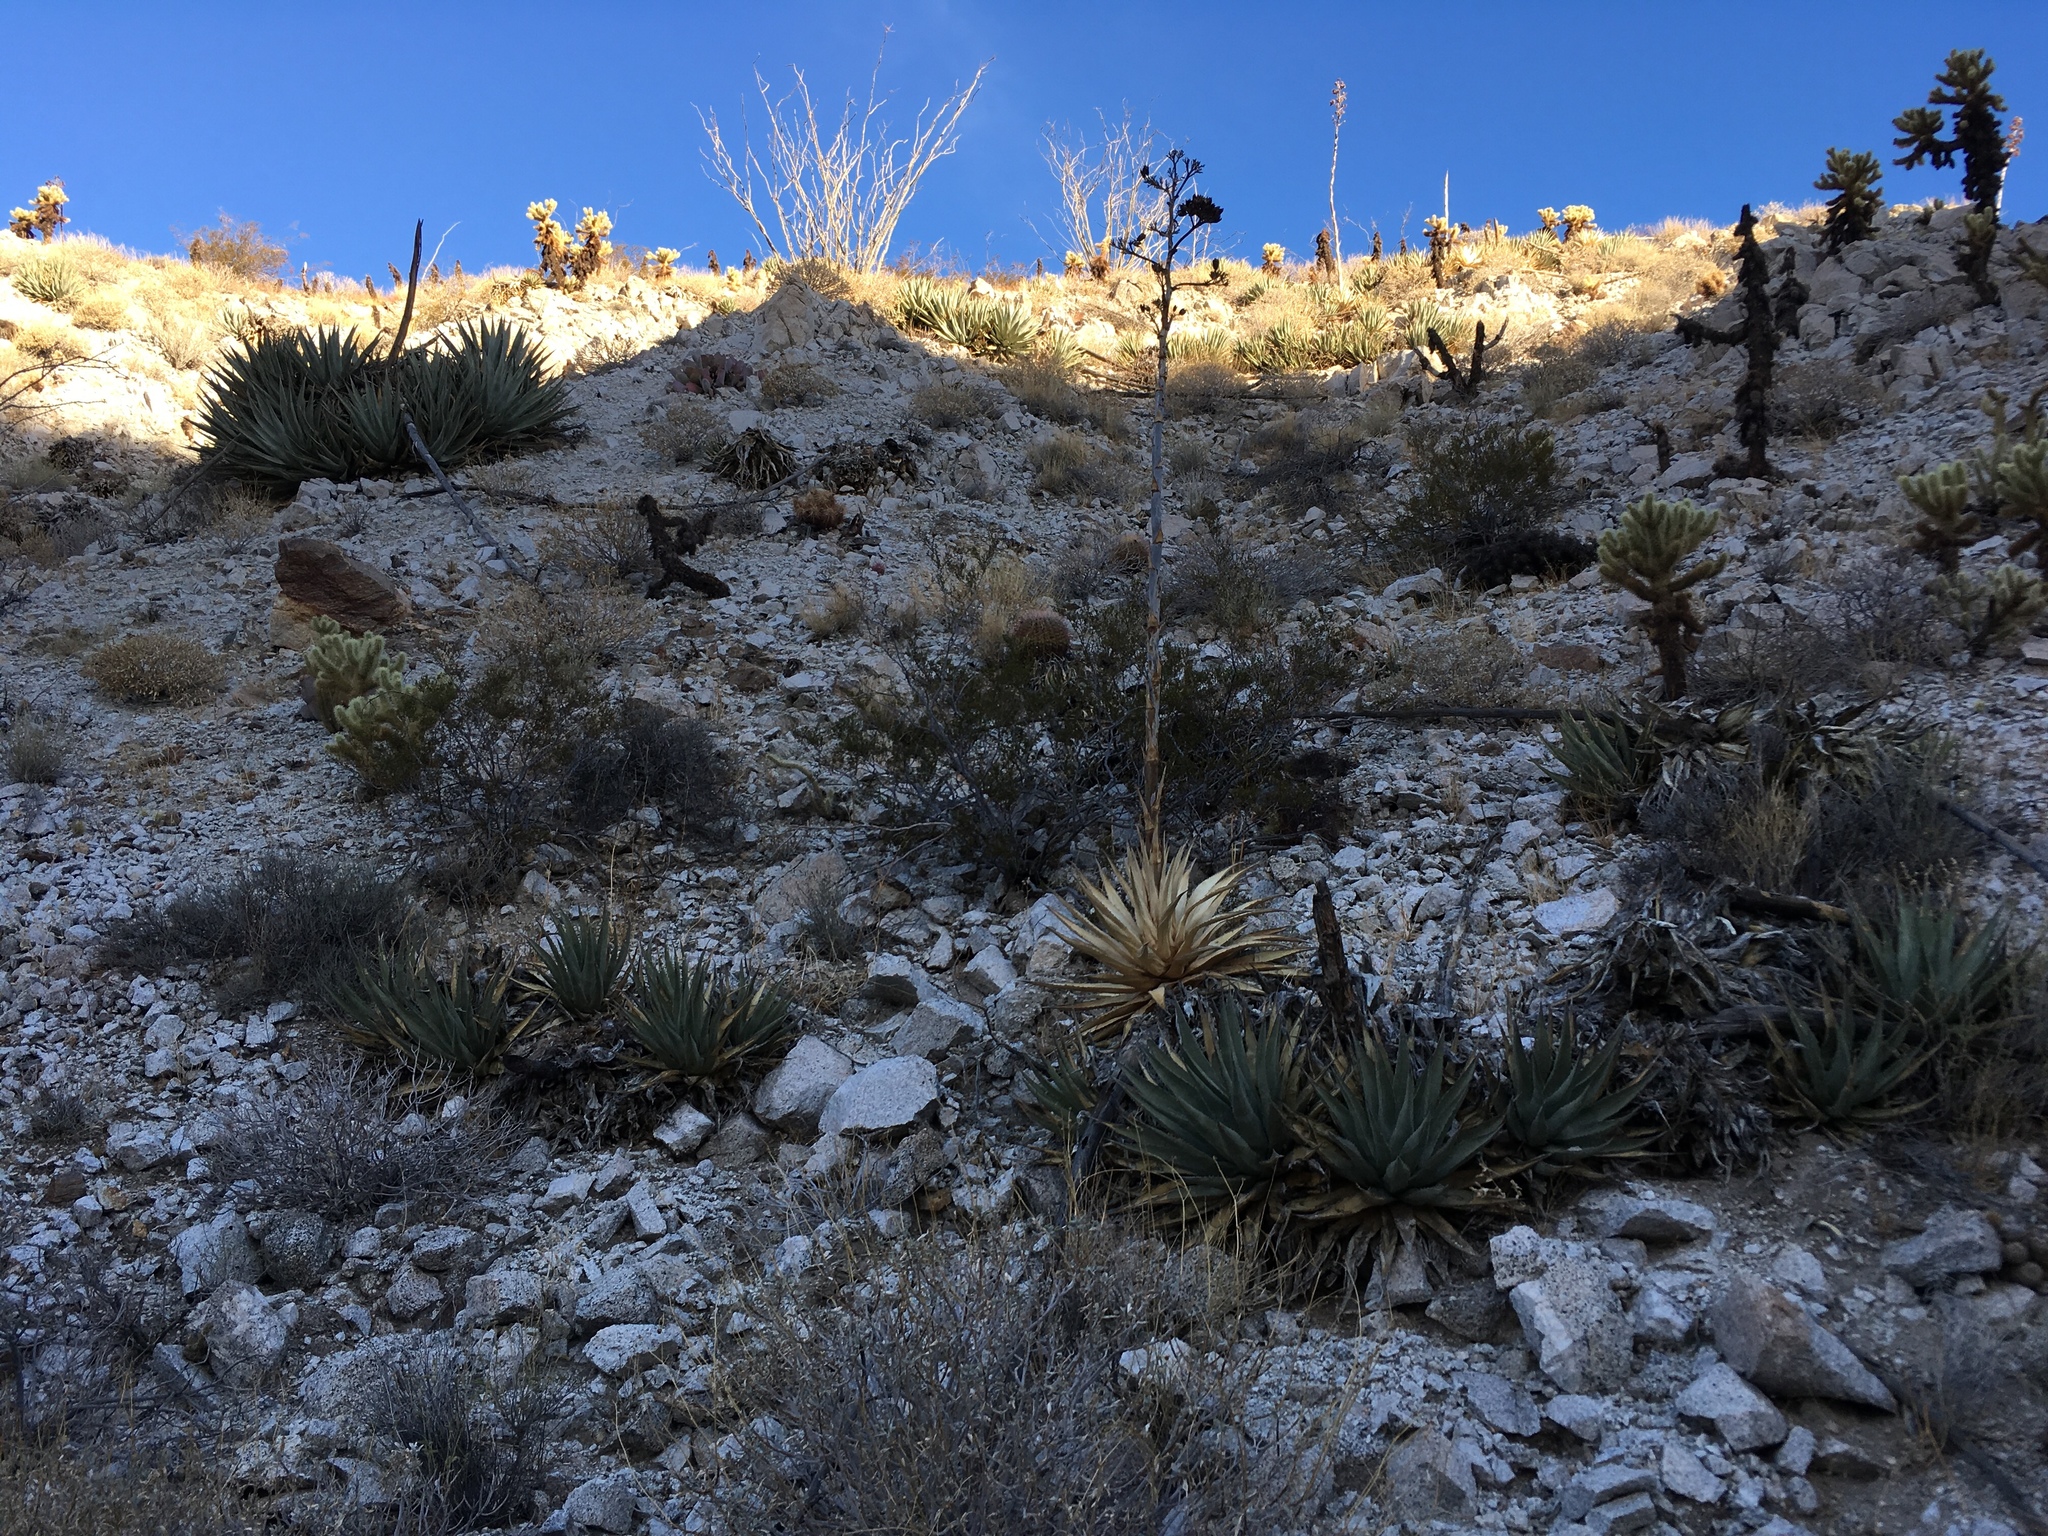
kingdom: Plantae
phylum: Tracheophyta
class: Liliopsida
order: Asparagales
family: Asparagaceae
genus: Agave
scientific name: Agave deserti
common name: Desert agave
